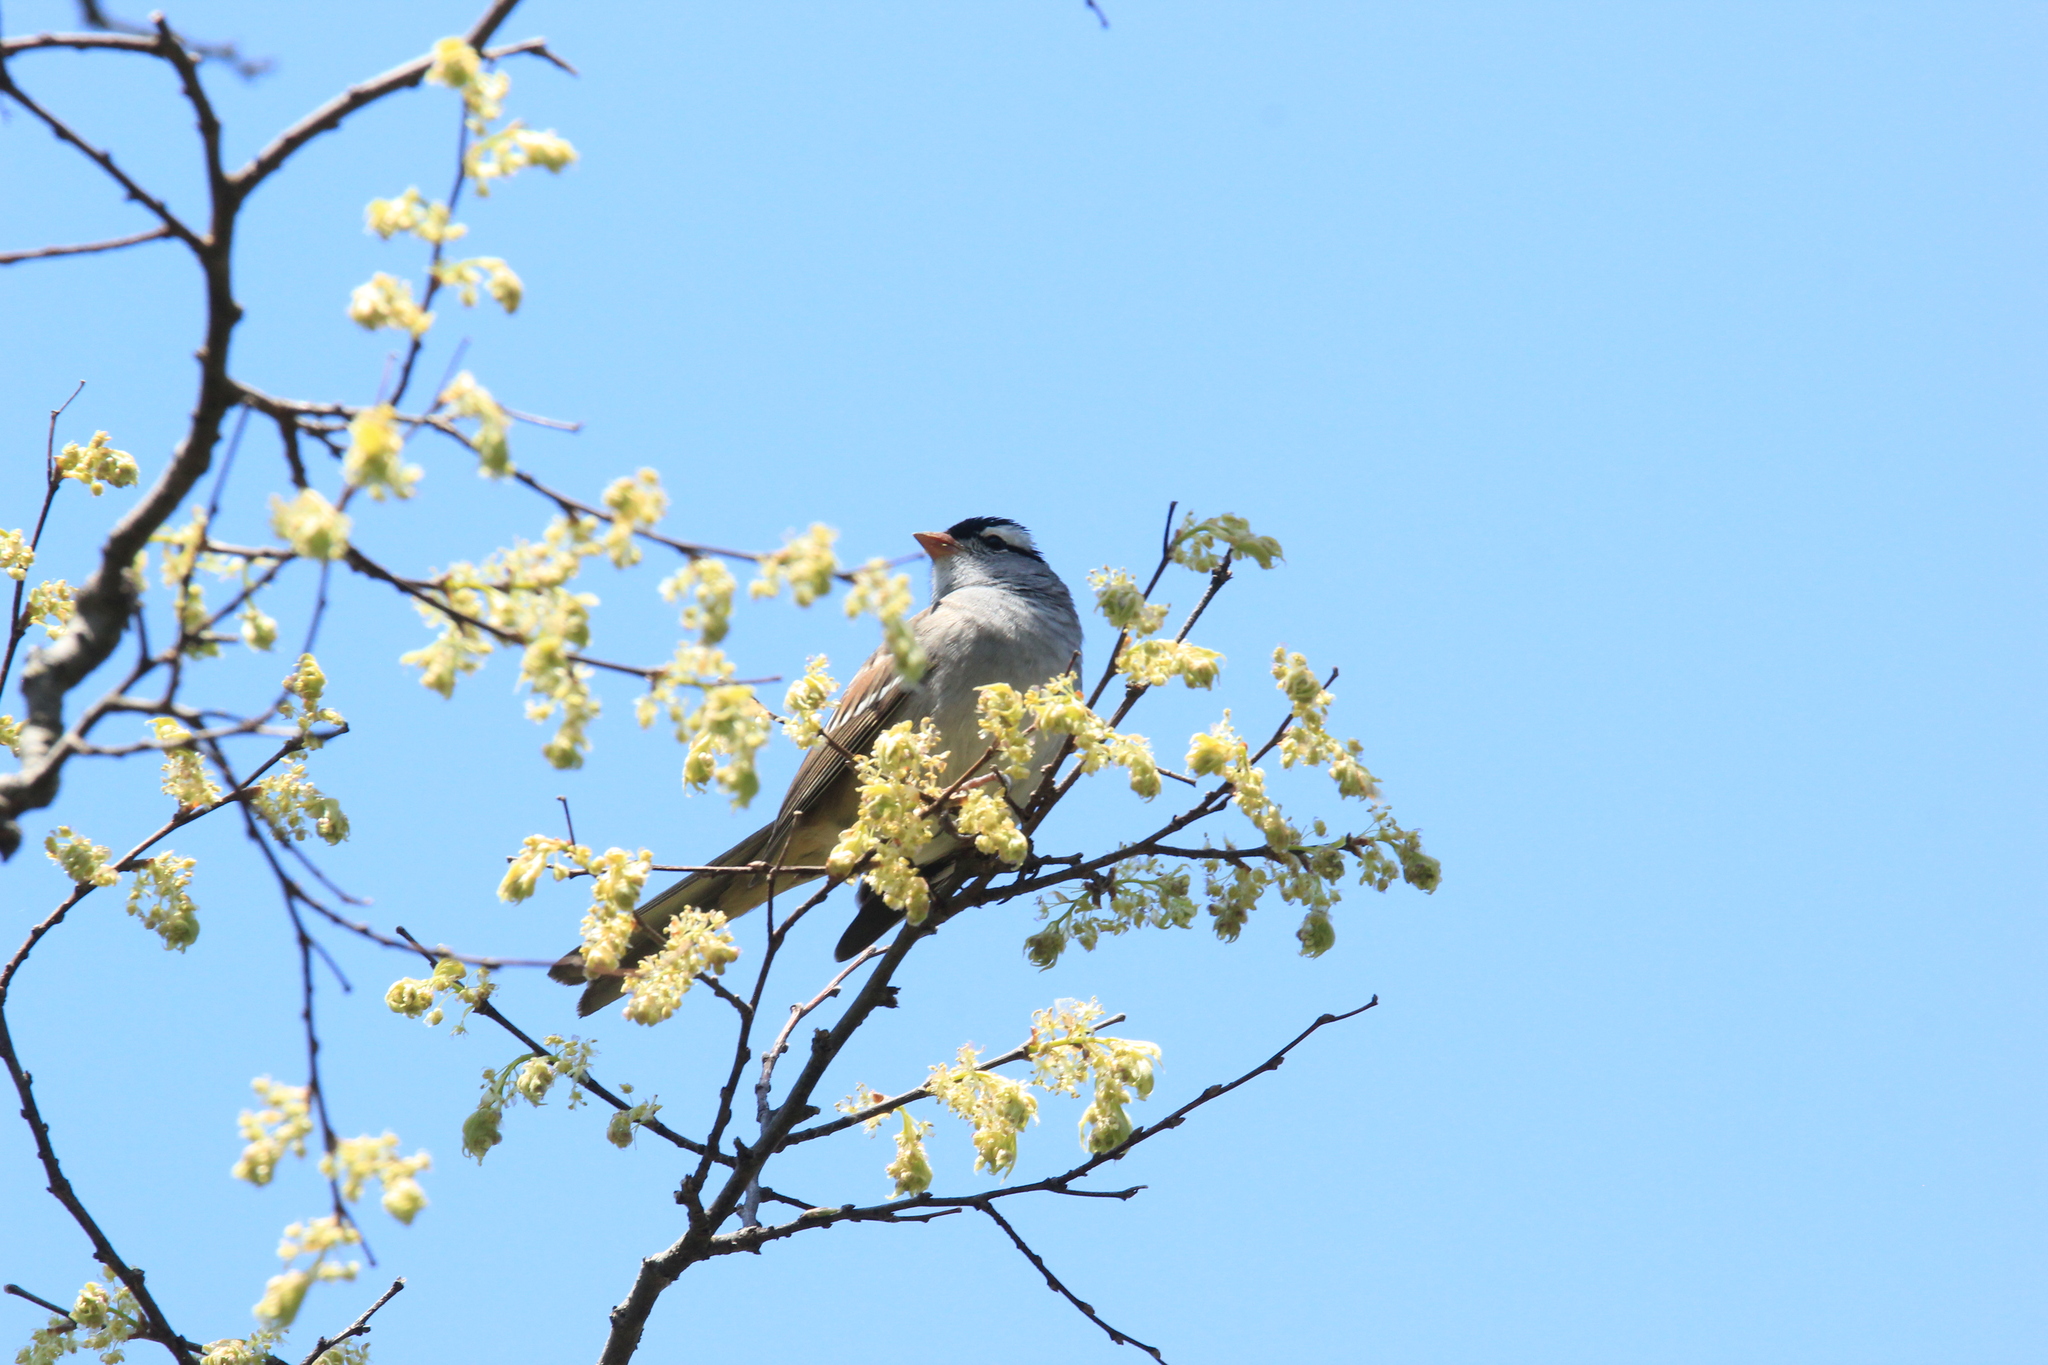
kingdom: Animalia
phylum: Chordata
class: Aves
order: Passeriformes
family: Passerellidae
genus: Zonotrichia
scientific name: Zonotrichia leucophrys
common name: White-crowned sparrow
